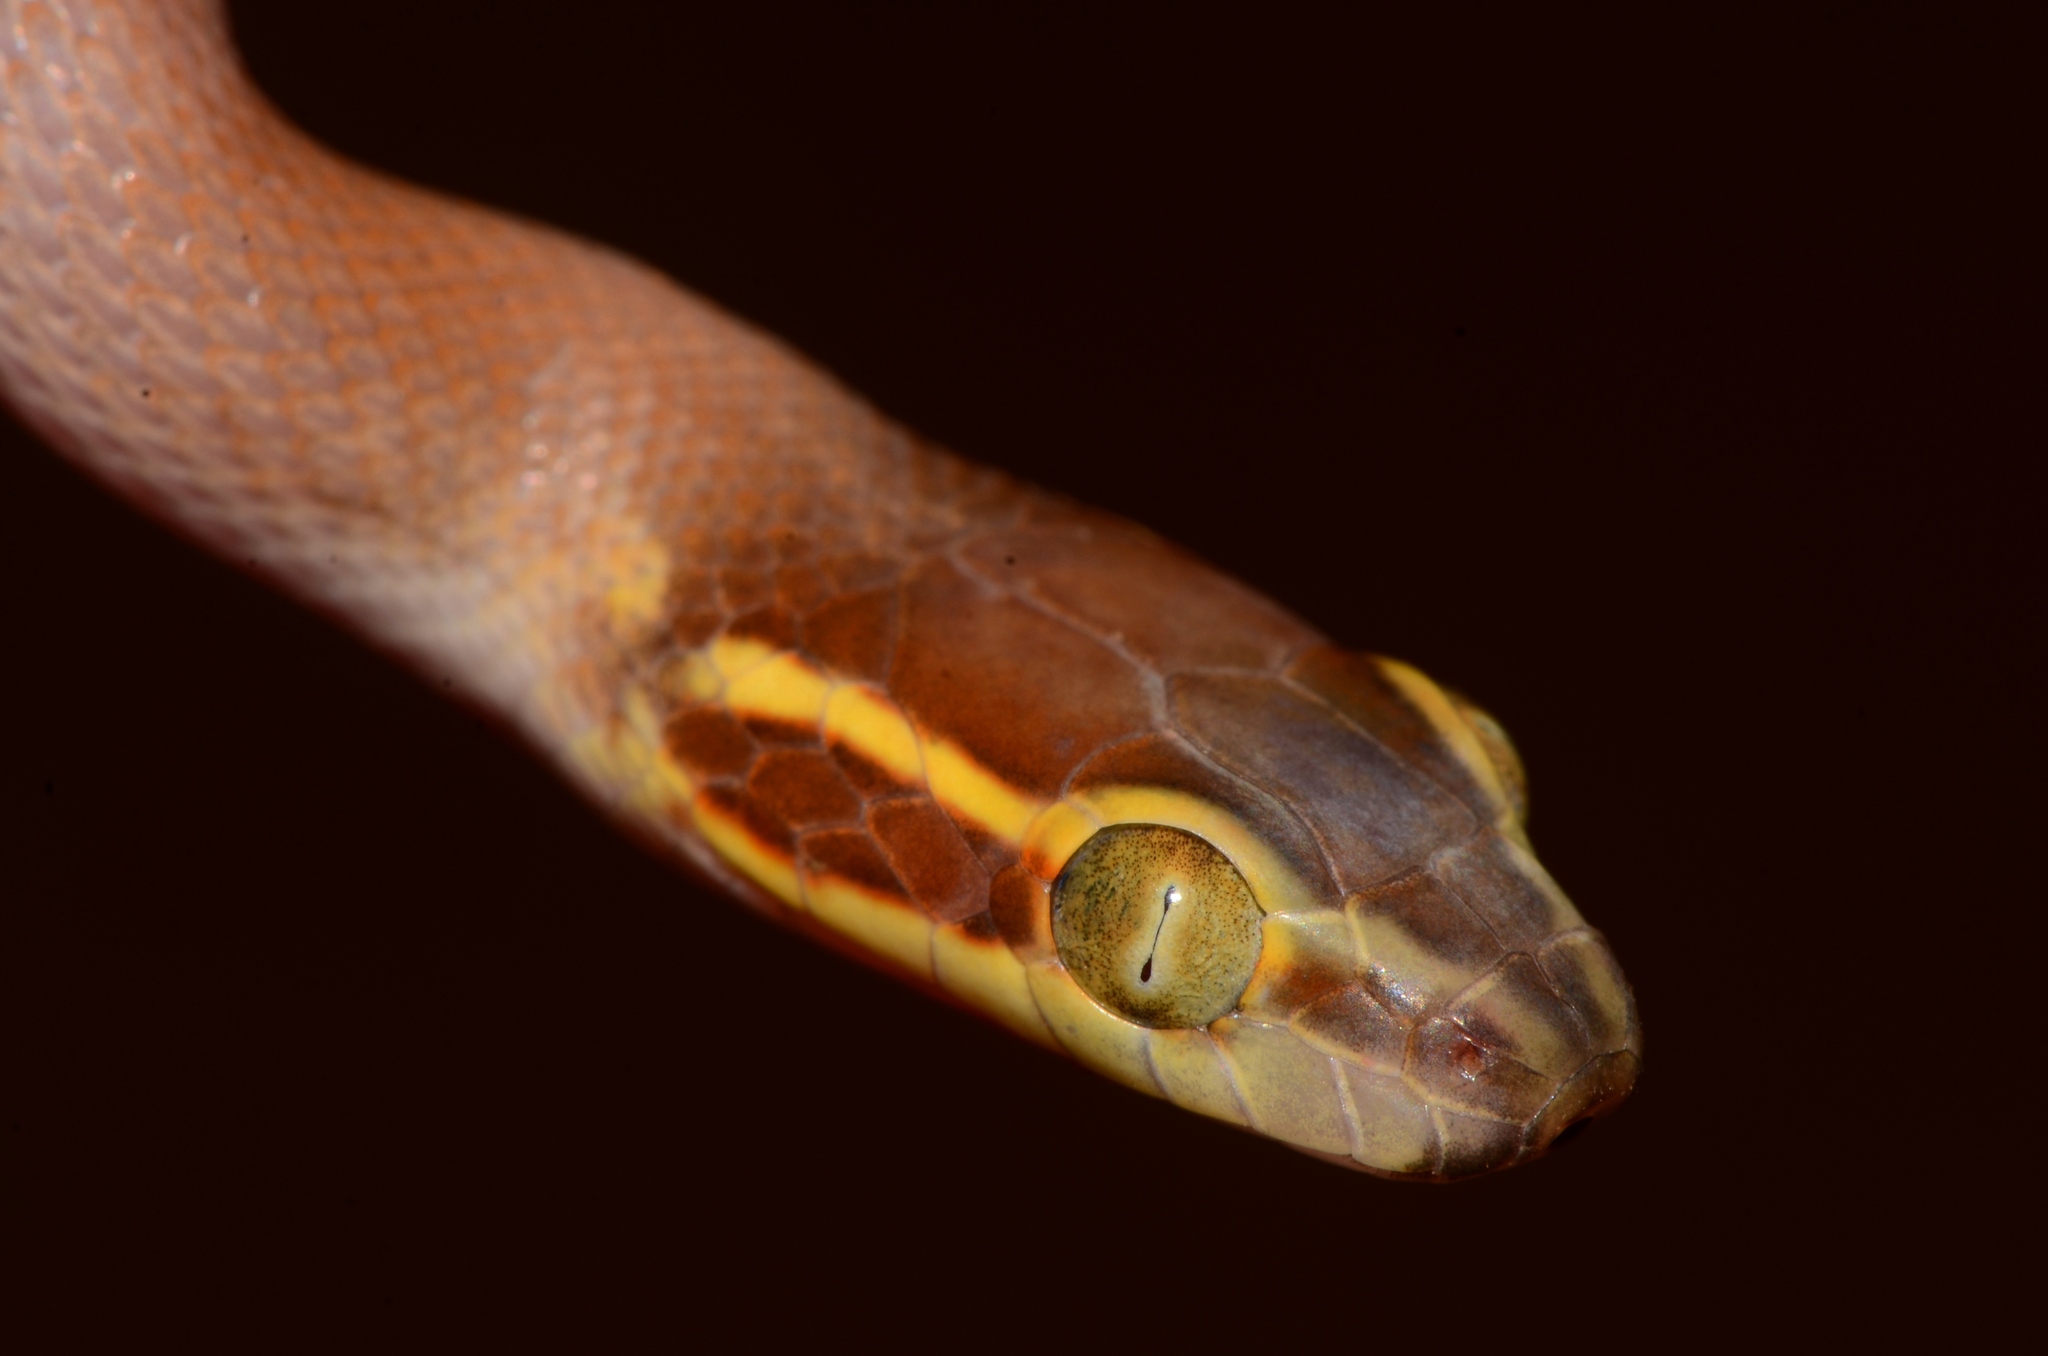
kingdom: Animalia
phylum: Chordata
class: Squamata
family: Lamprophiidae
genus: Boaedon
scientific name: Boaedon mentalis
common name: Bug-eyed house snake
